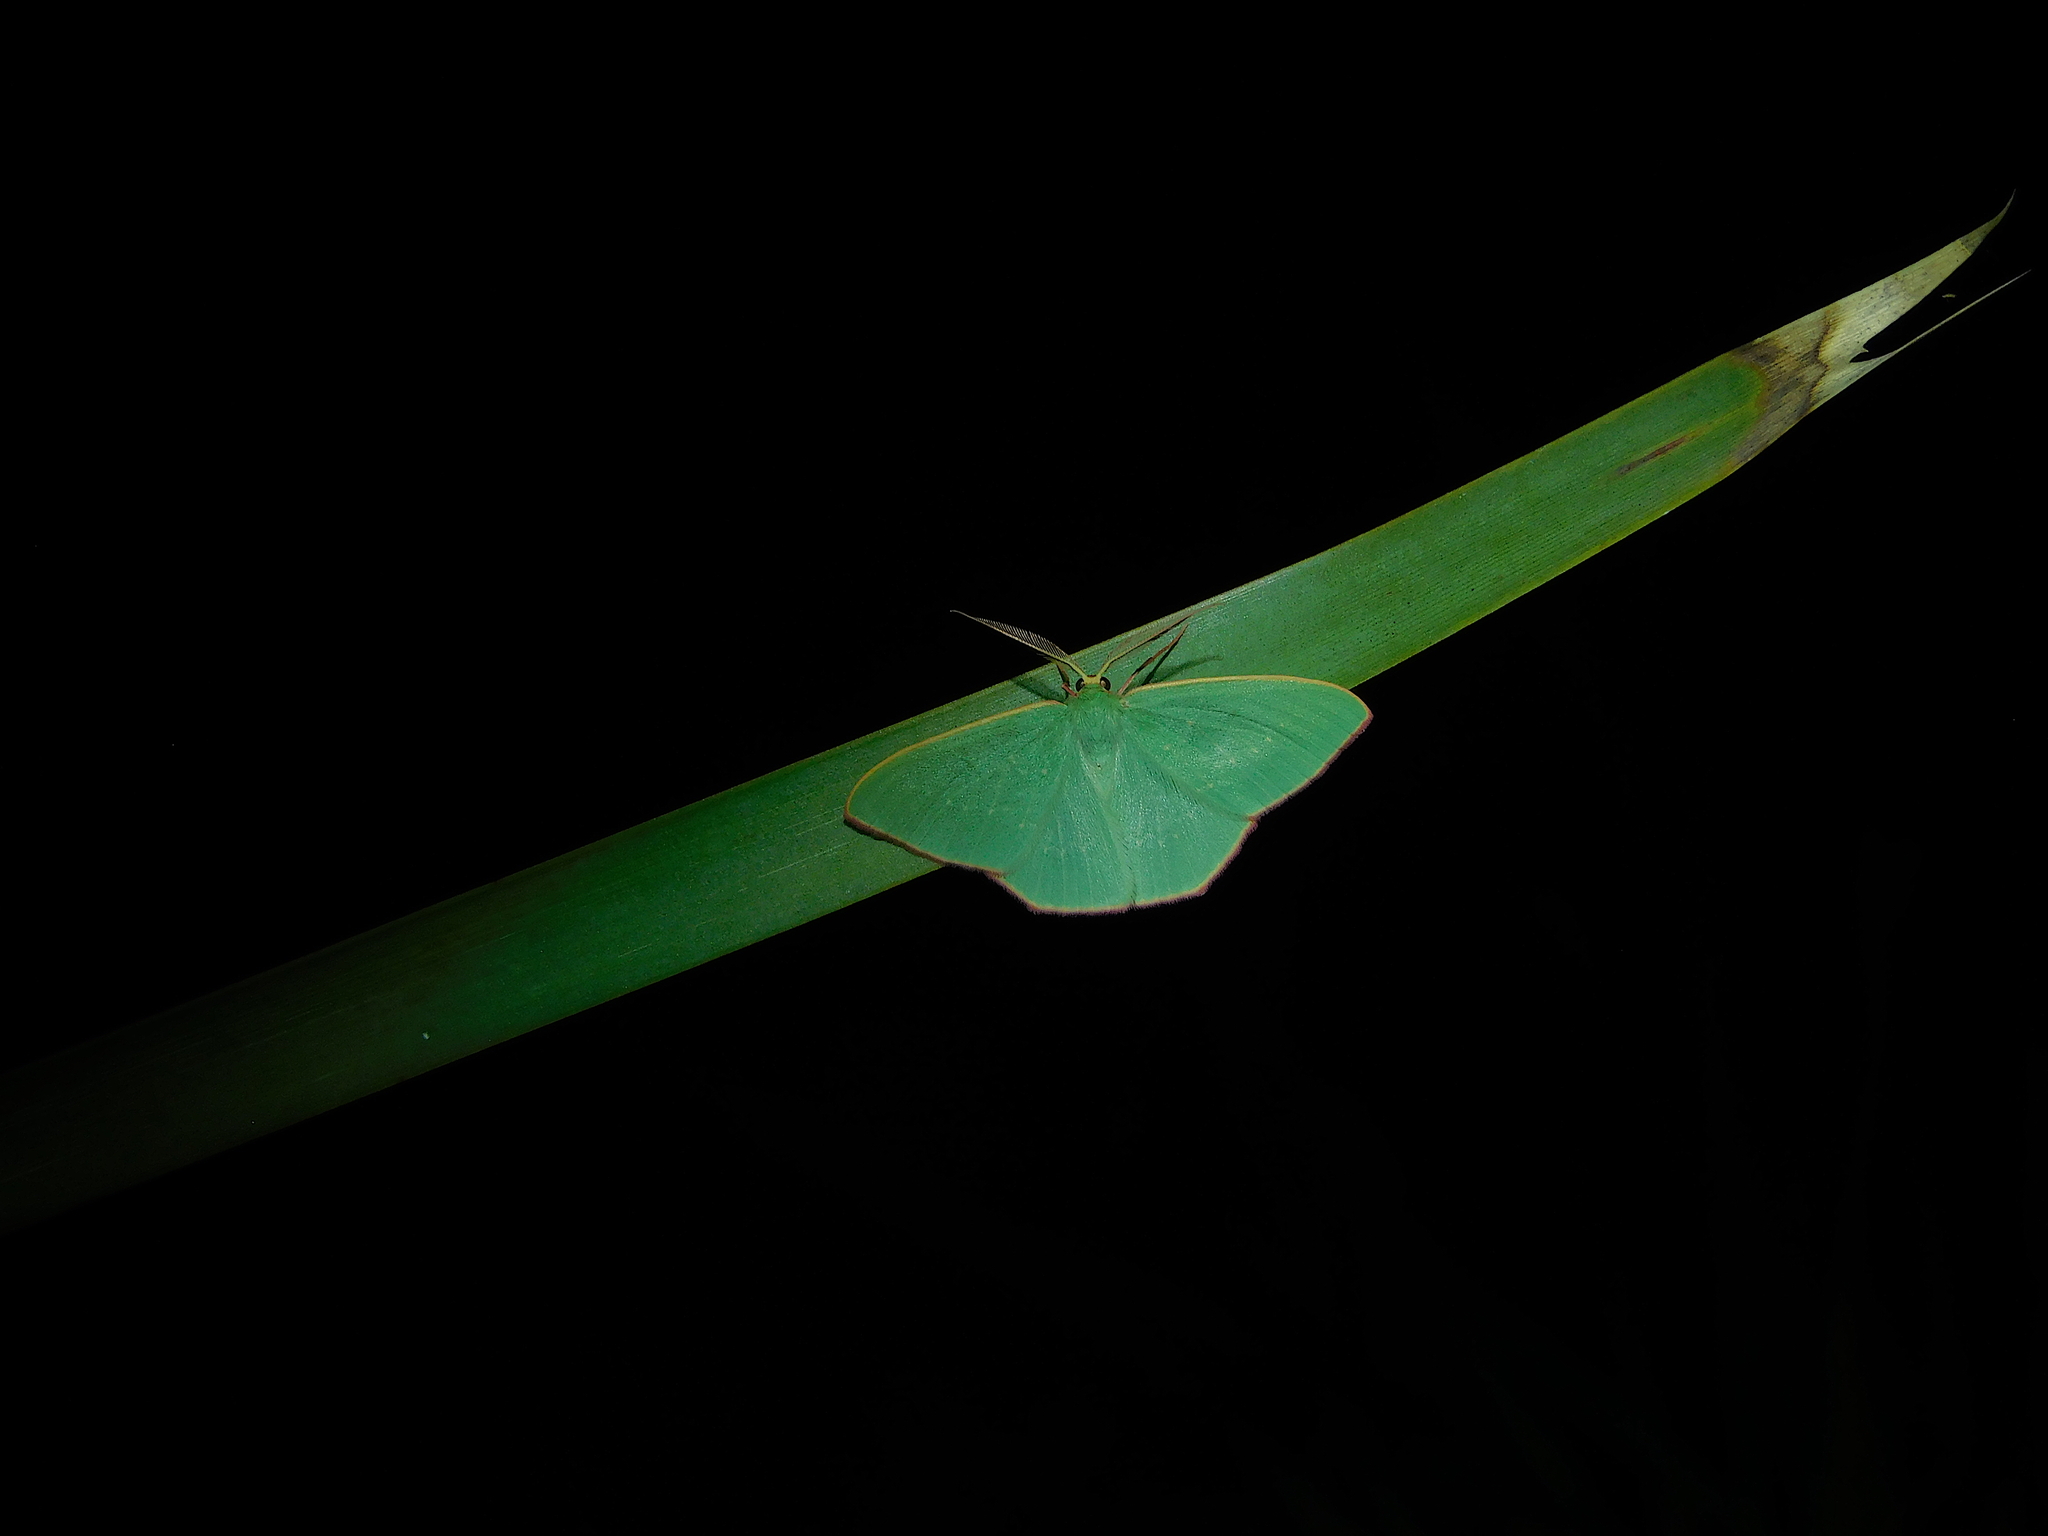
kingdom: Animalia
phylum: Arthropoda
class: Insecta
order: Lepidoptera
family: Geometridae
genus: Prasinocyma
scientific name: Prasinocyma semicrocea
